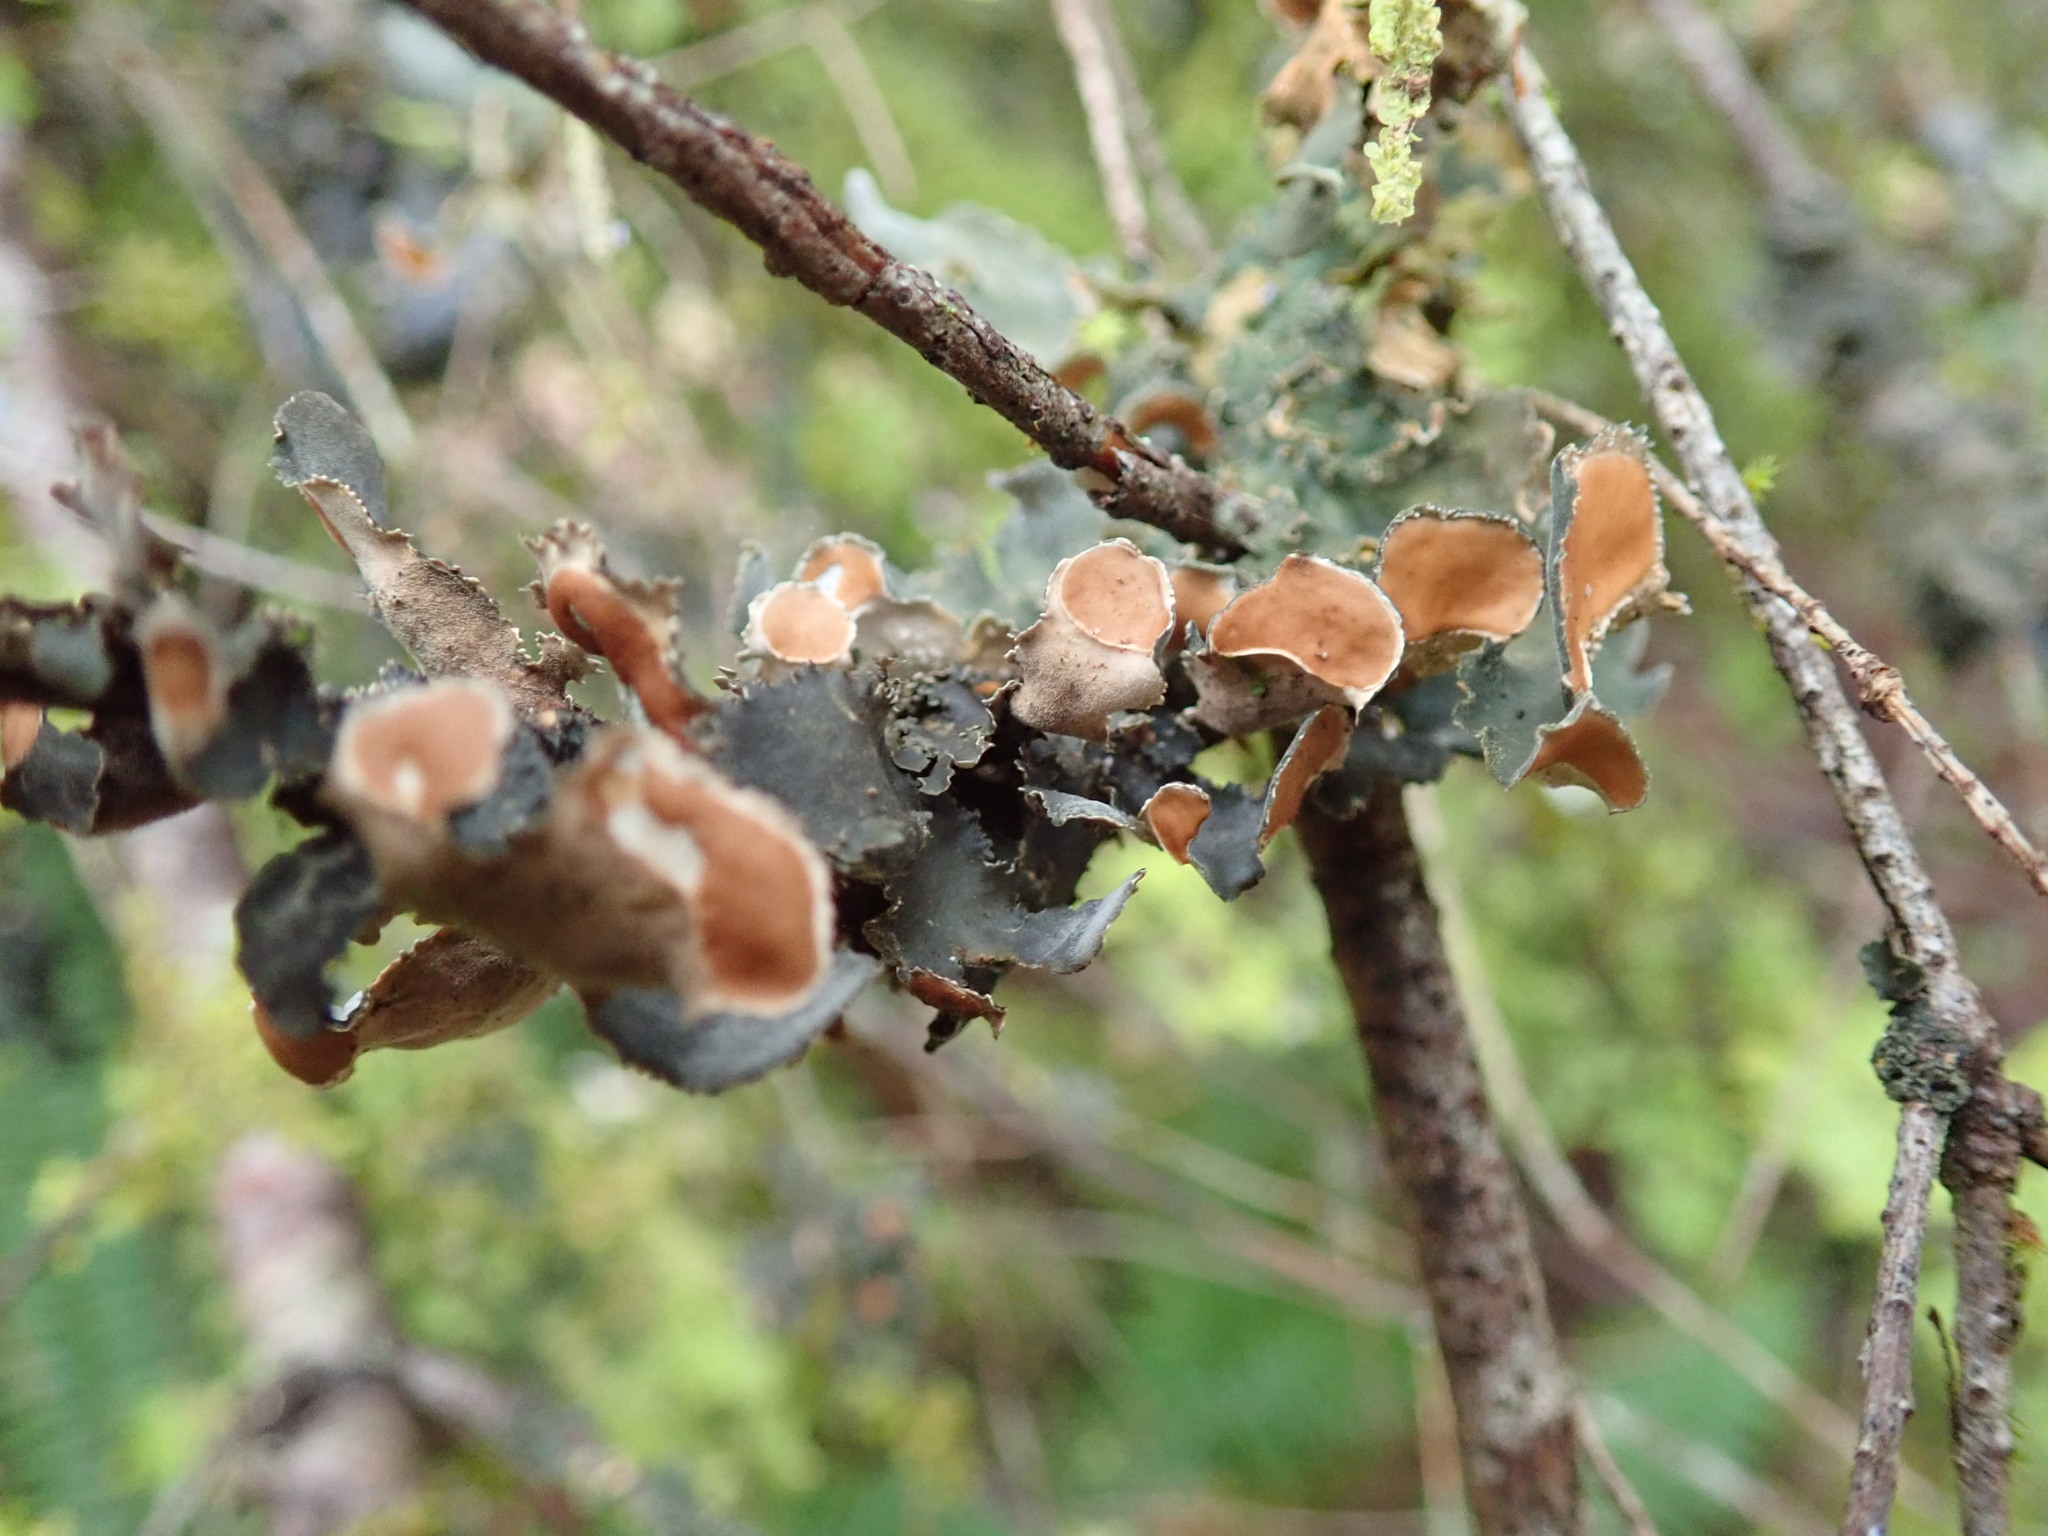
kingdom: Fungi
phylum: Ascomycota
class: Lecanoromycetes
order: Peltigerales
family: Nephromataceae
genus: Nephroma
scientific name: Nephroma resupinatum
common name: Pimpled kidney lichen
